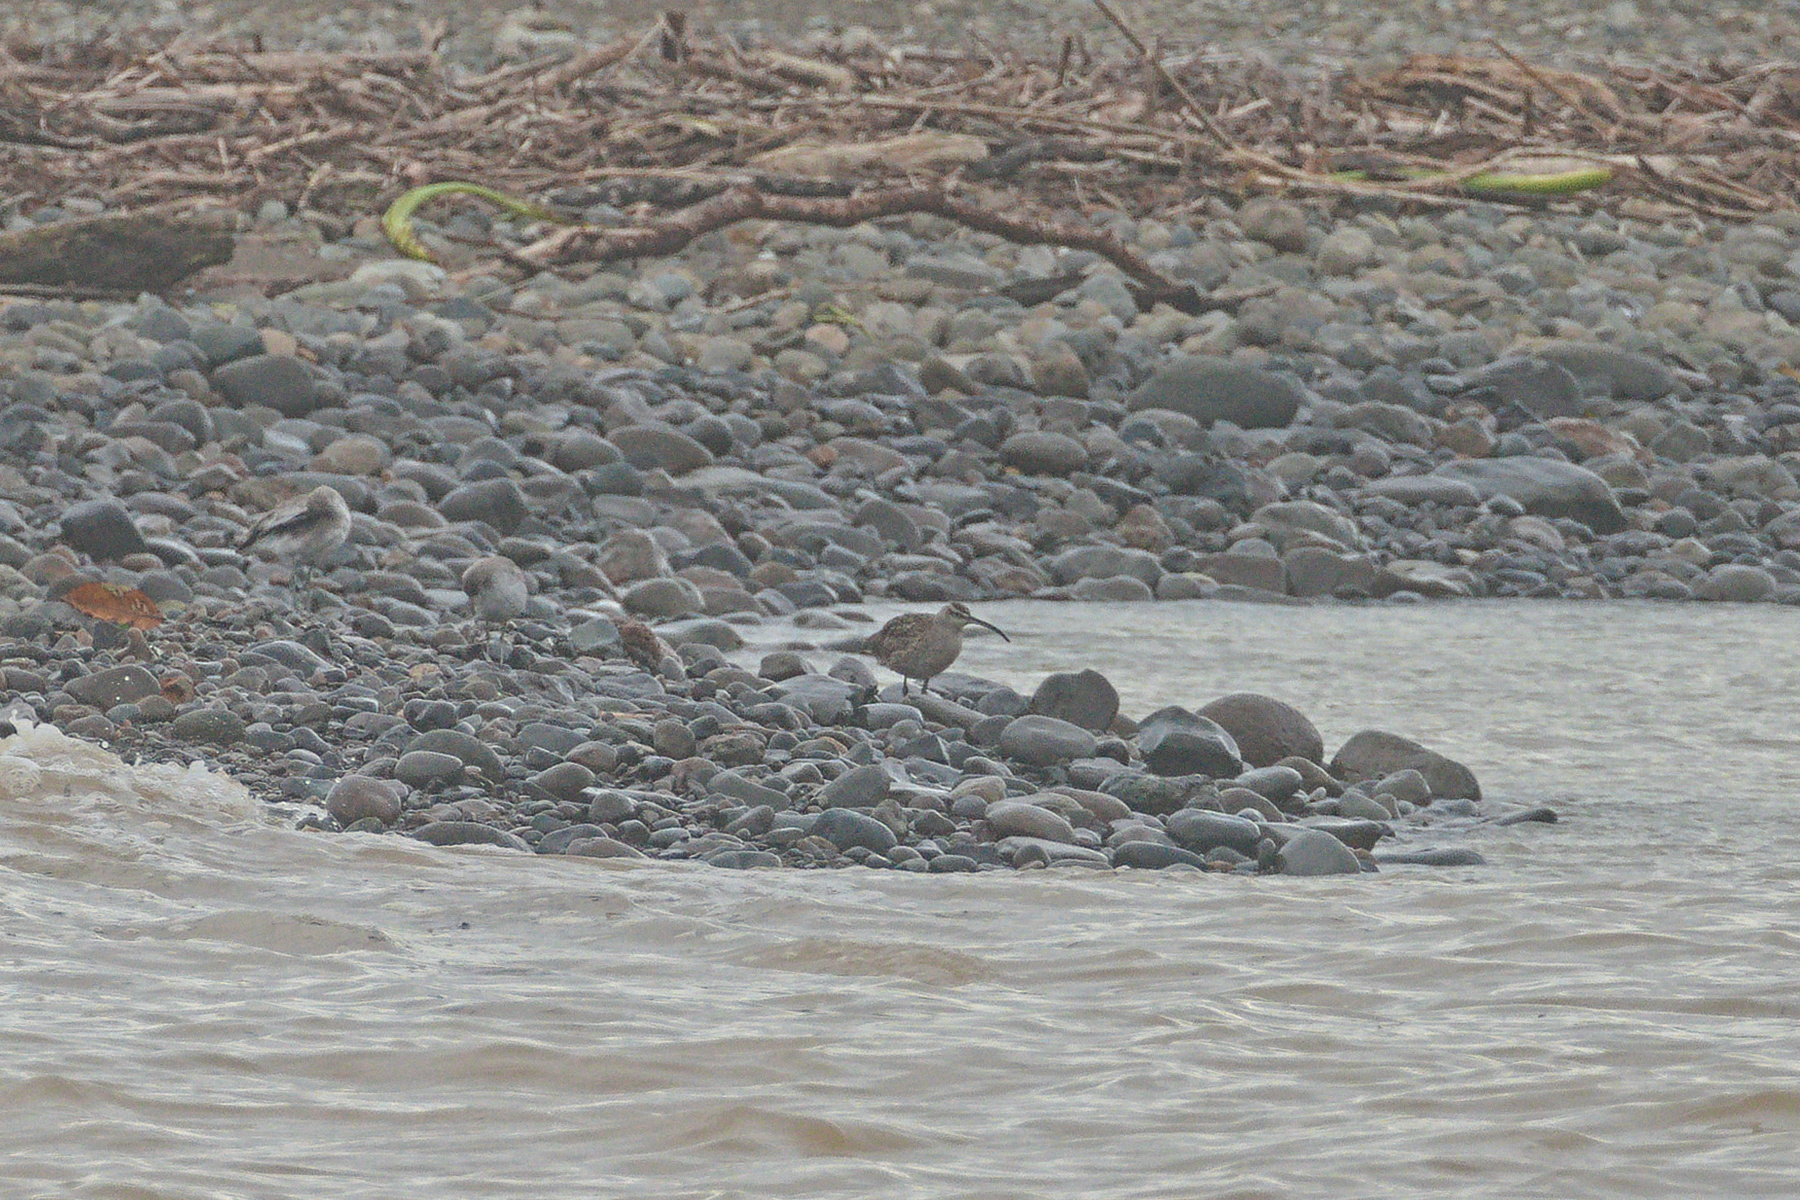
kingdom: Animalia
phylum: Chordata
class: Aves
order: Charadriiformes
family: Scolopacidae
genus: Numenius
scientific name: Numenius phaeopus
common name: Whimbrel
